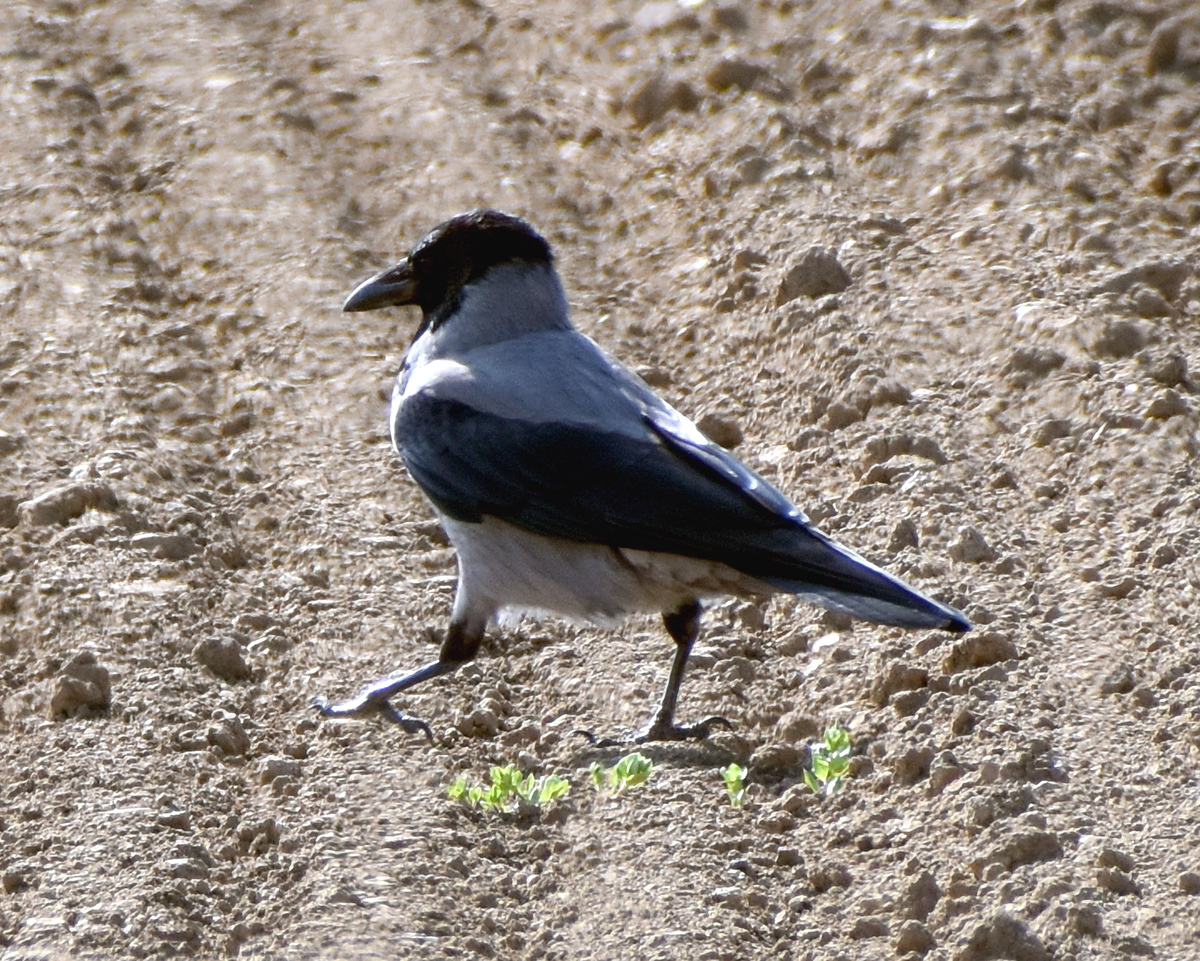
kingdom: Animalia
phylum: Chordata
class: Aves
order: Passeriformes
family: Corvidae
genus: Corvus
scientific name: Corvus cornix
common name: Hooded crow
